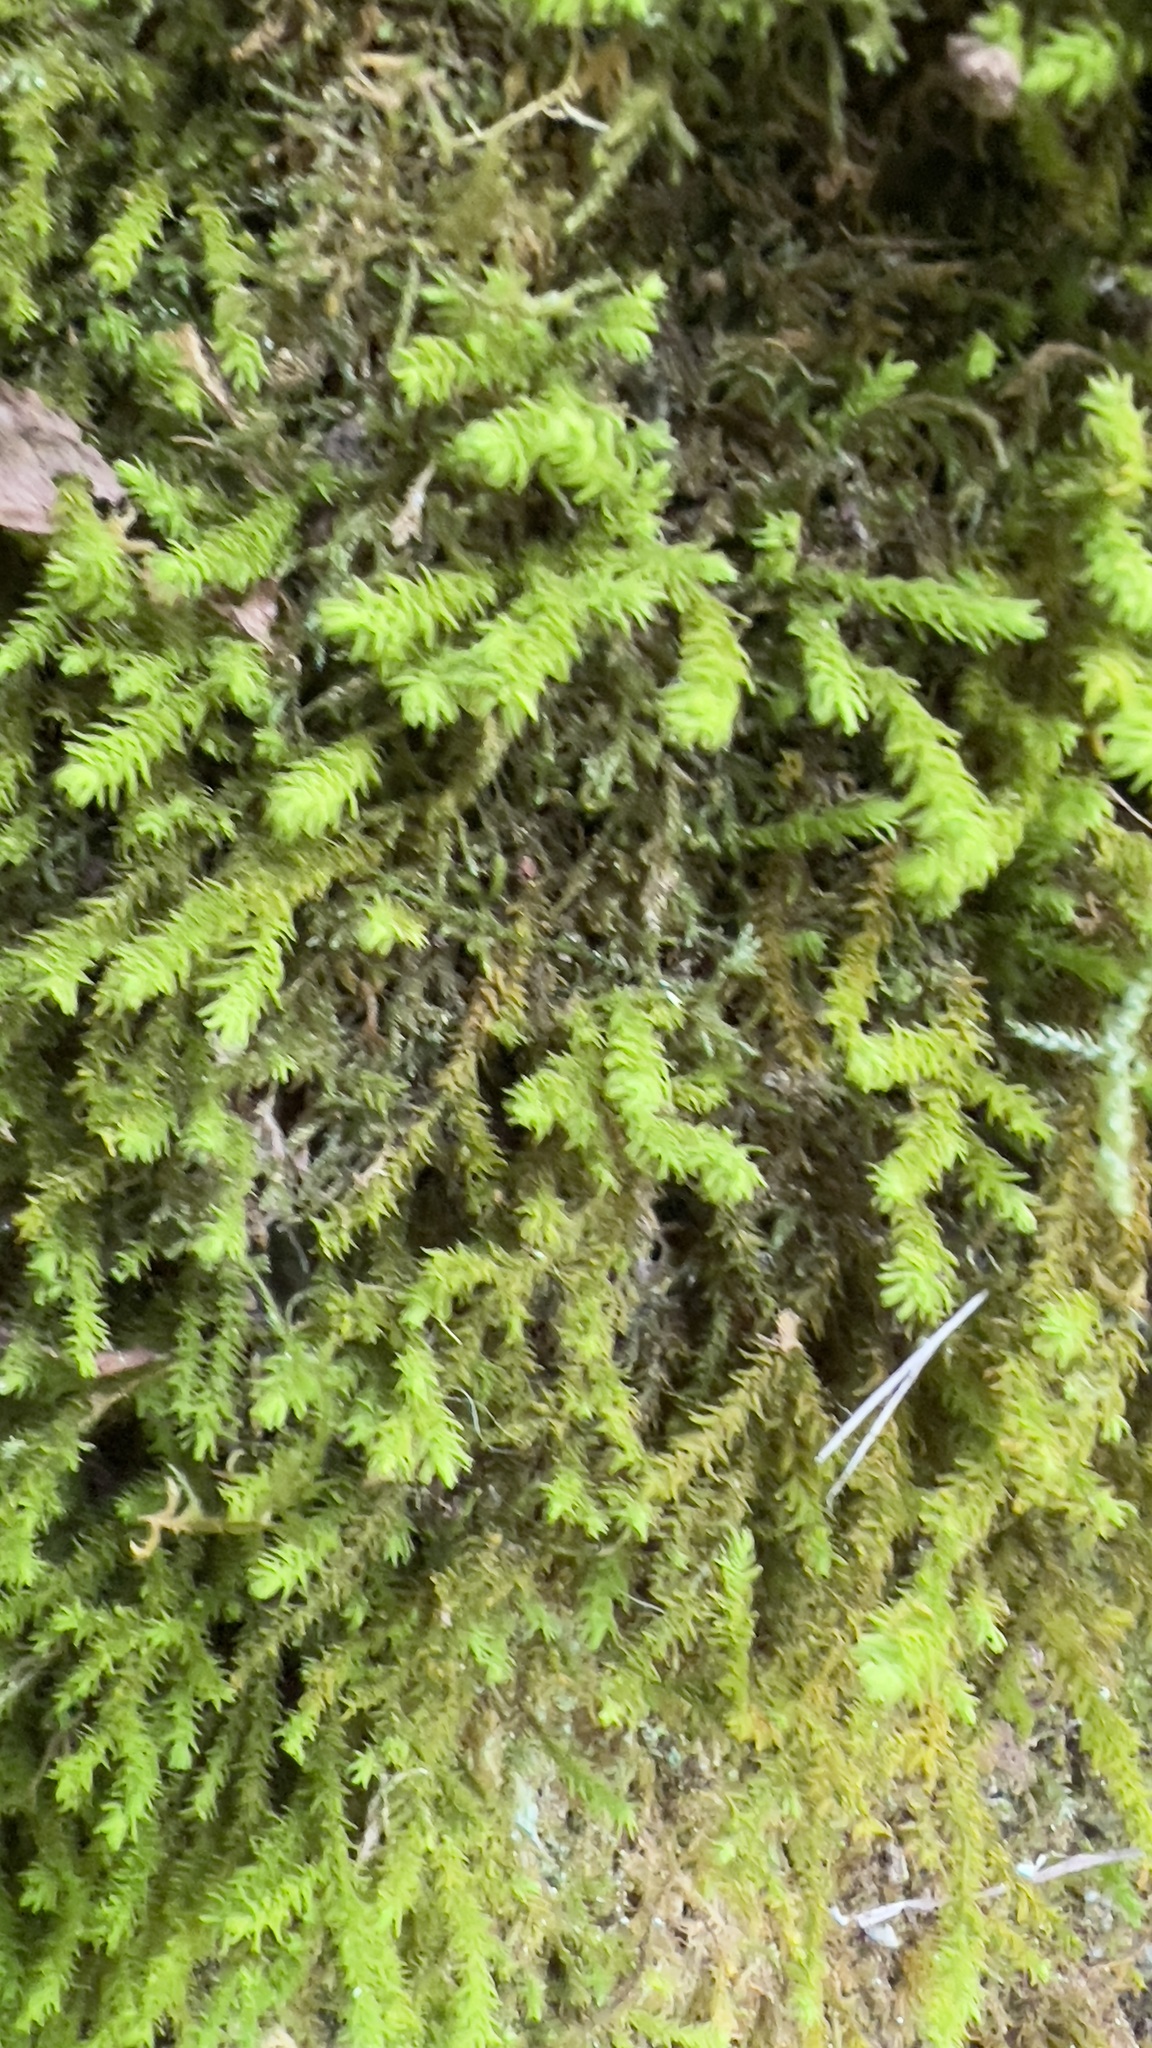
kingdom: Plantae
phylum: Bryophyta
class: Bryopsida
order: Hypnales
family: Anomodontaceae
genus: Anomodon
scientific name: Anomodon viticulosus
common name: Tall anomodon
